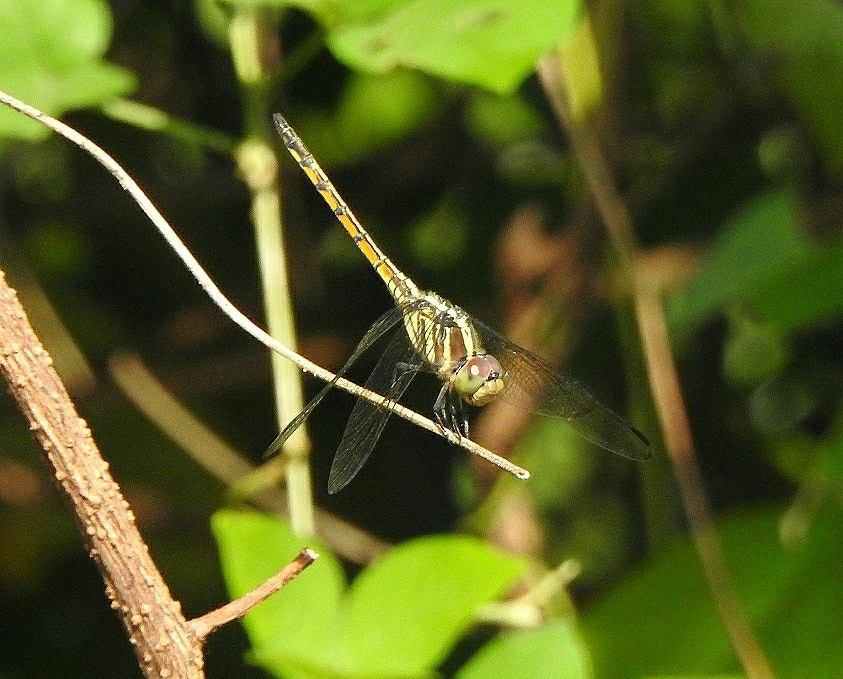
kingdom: Animalia
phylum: Arthropoda
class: Insecta
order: Odonata
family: Libellulidae
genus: Potamarcha
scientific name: Potamarcha congener
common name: Blue chaser
